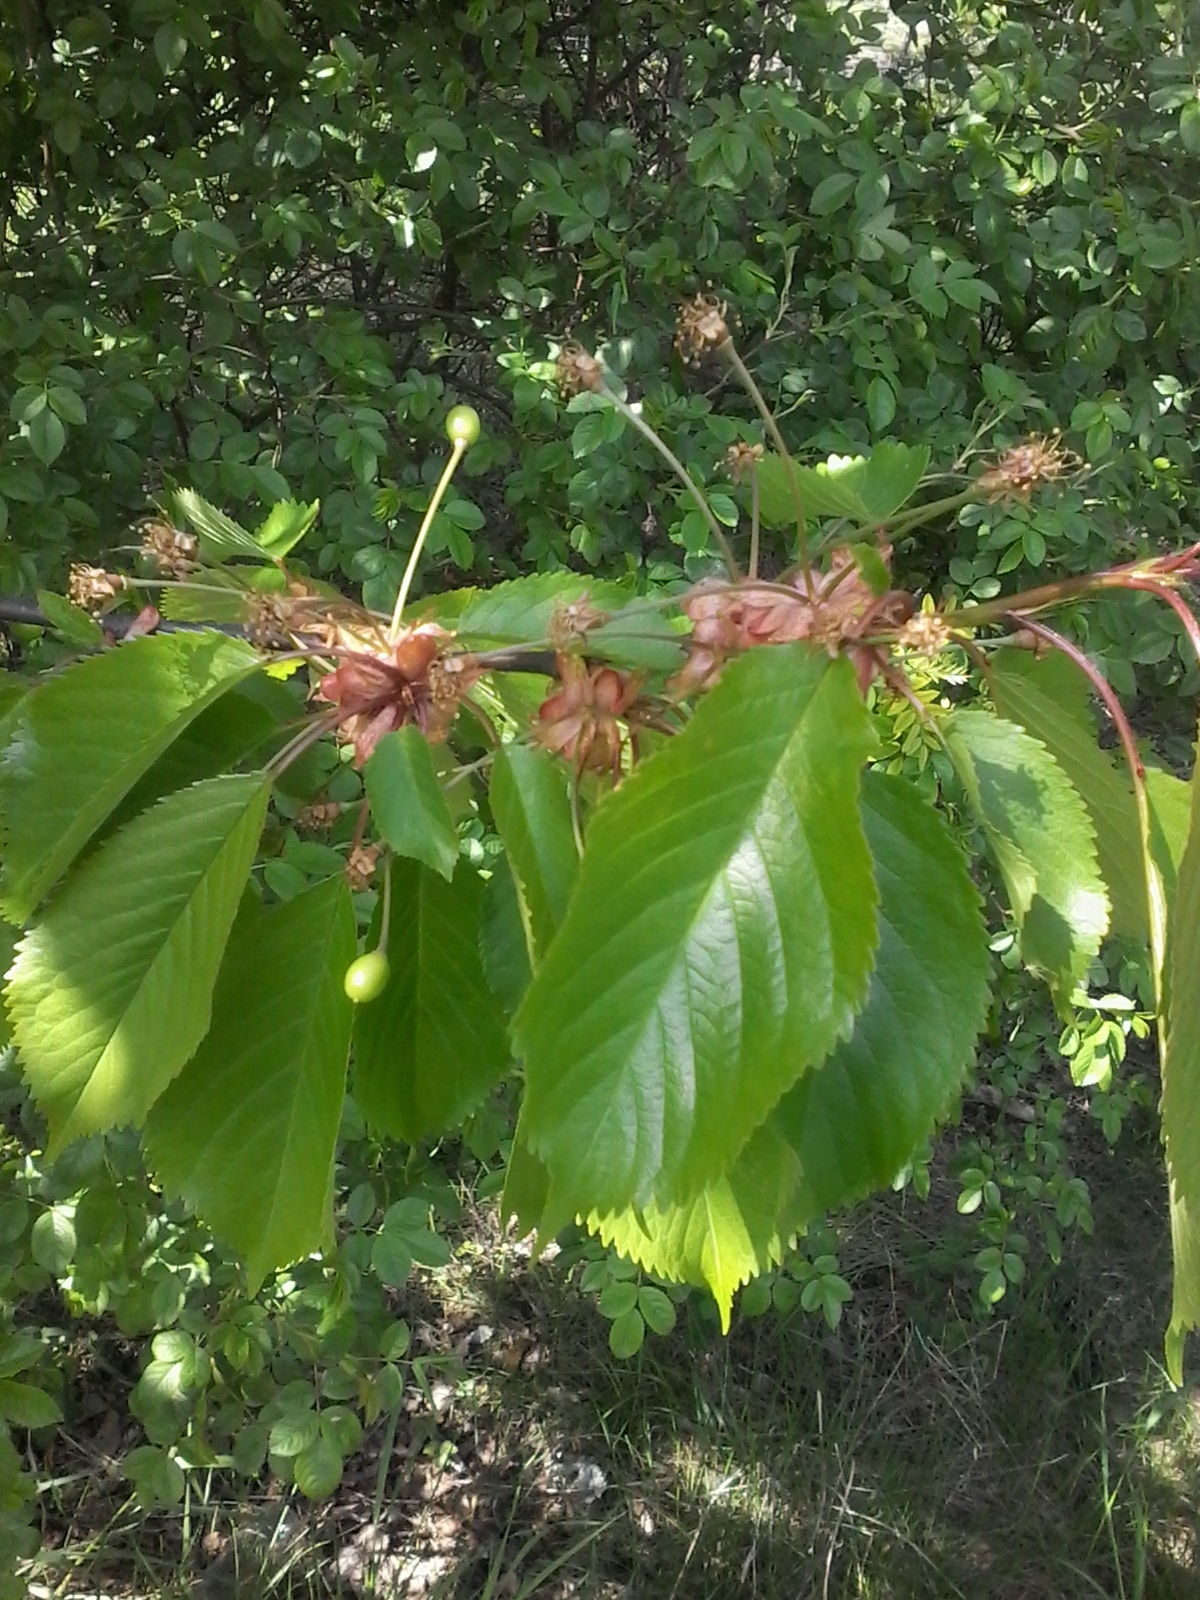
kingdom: Plantae
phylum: Tracheophyta
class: Magnoliopsida
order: Rosales
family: Rosaceae
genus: Prunus
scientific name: Prunus avium
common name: Sweet cherry
